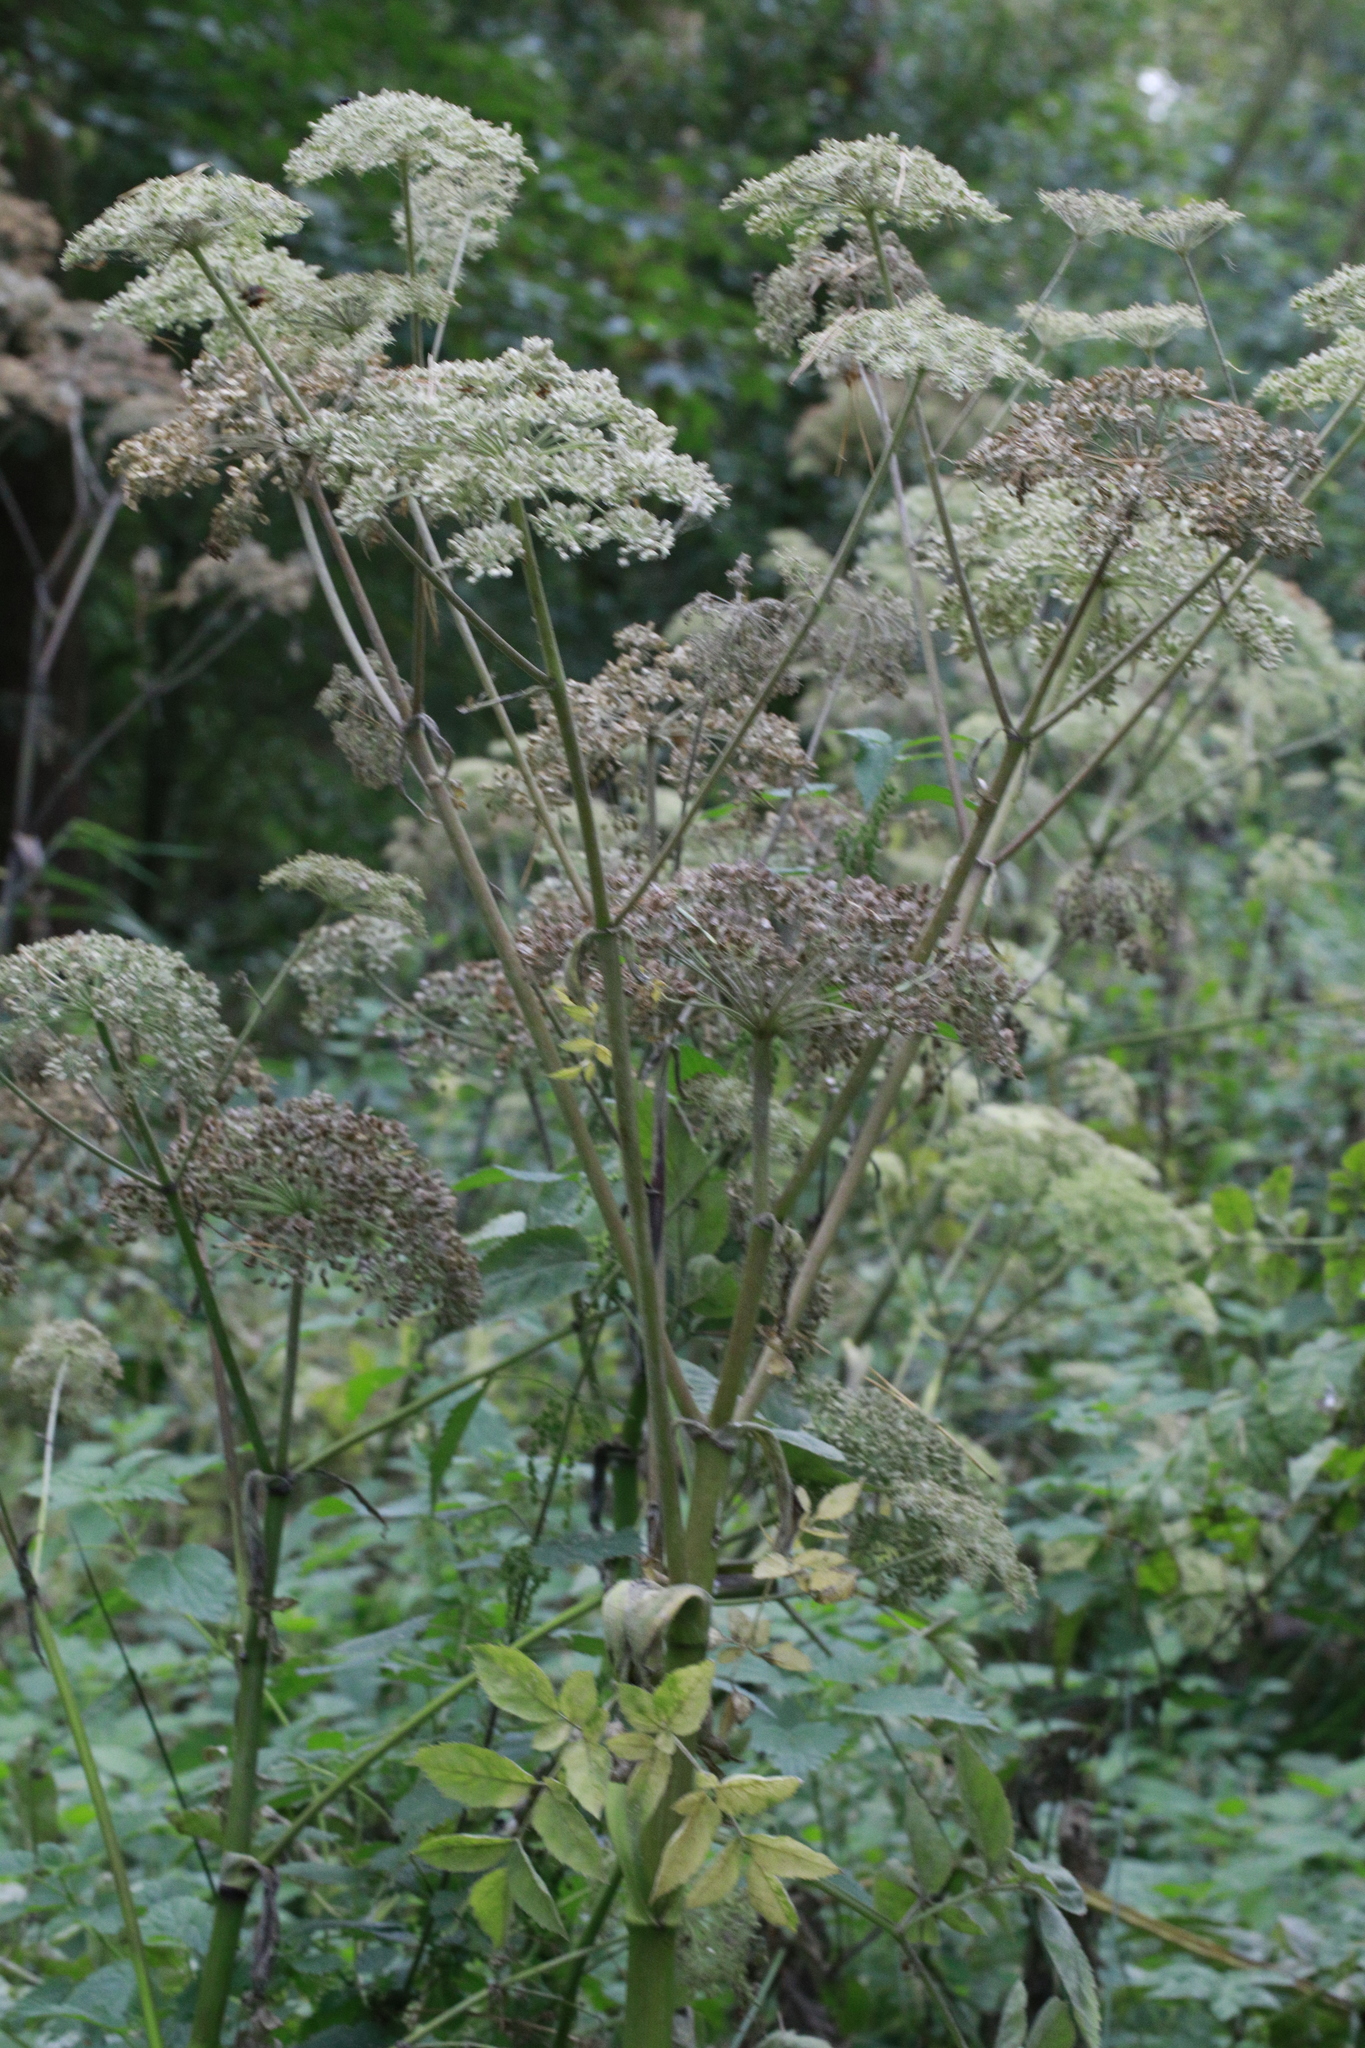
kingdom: Plantae
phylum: Tracheophyta
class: Magnoliopsida
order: Apiales
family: Apiaceae
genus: Angelica
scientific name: Angelica sylvestris
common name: Wild angelica
